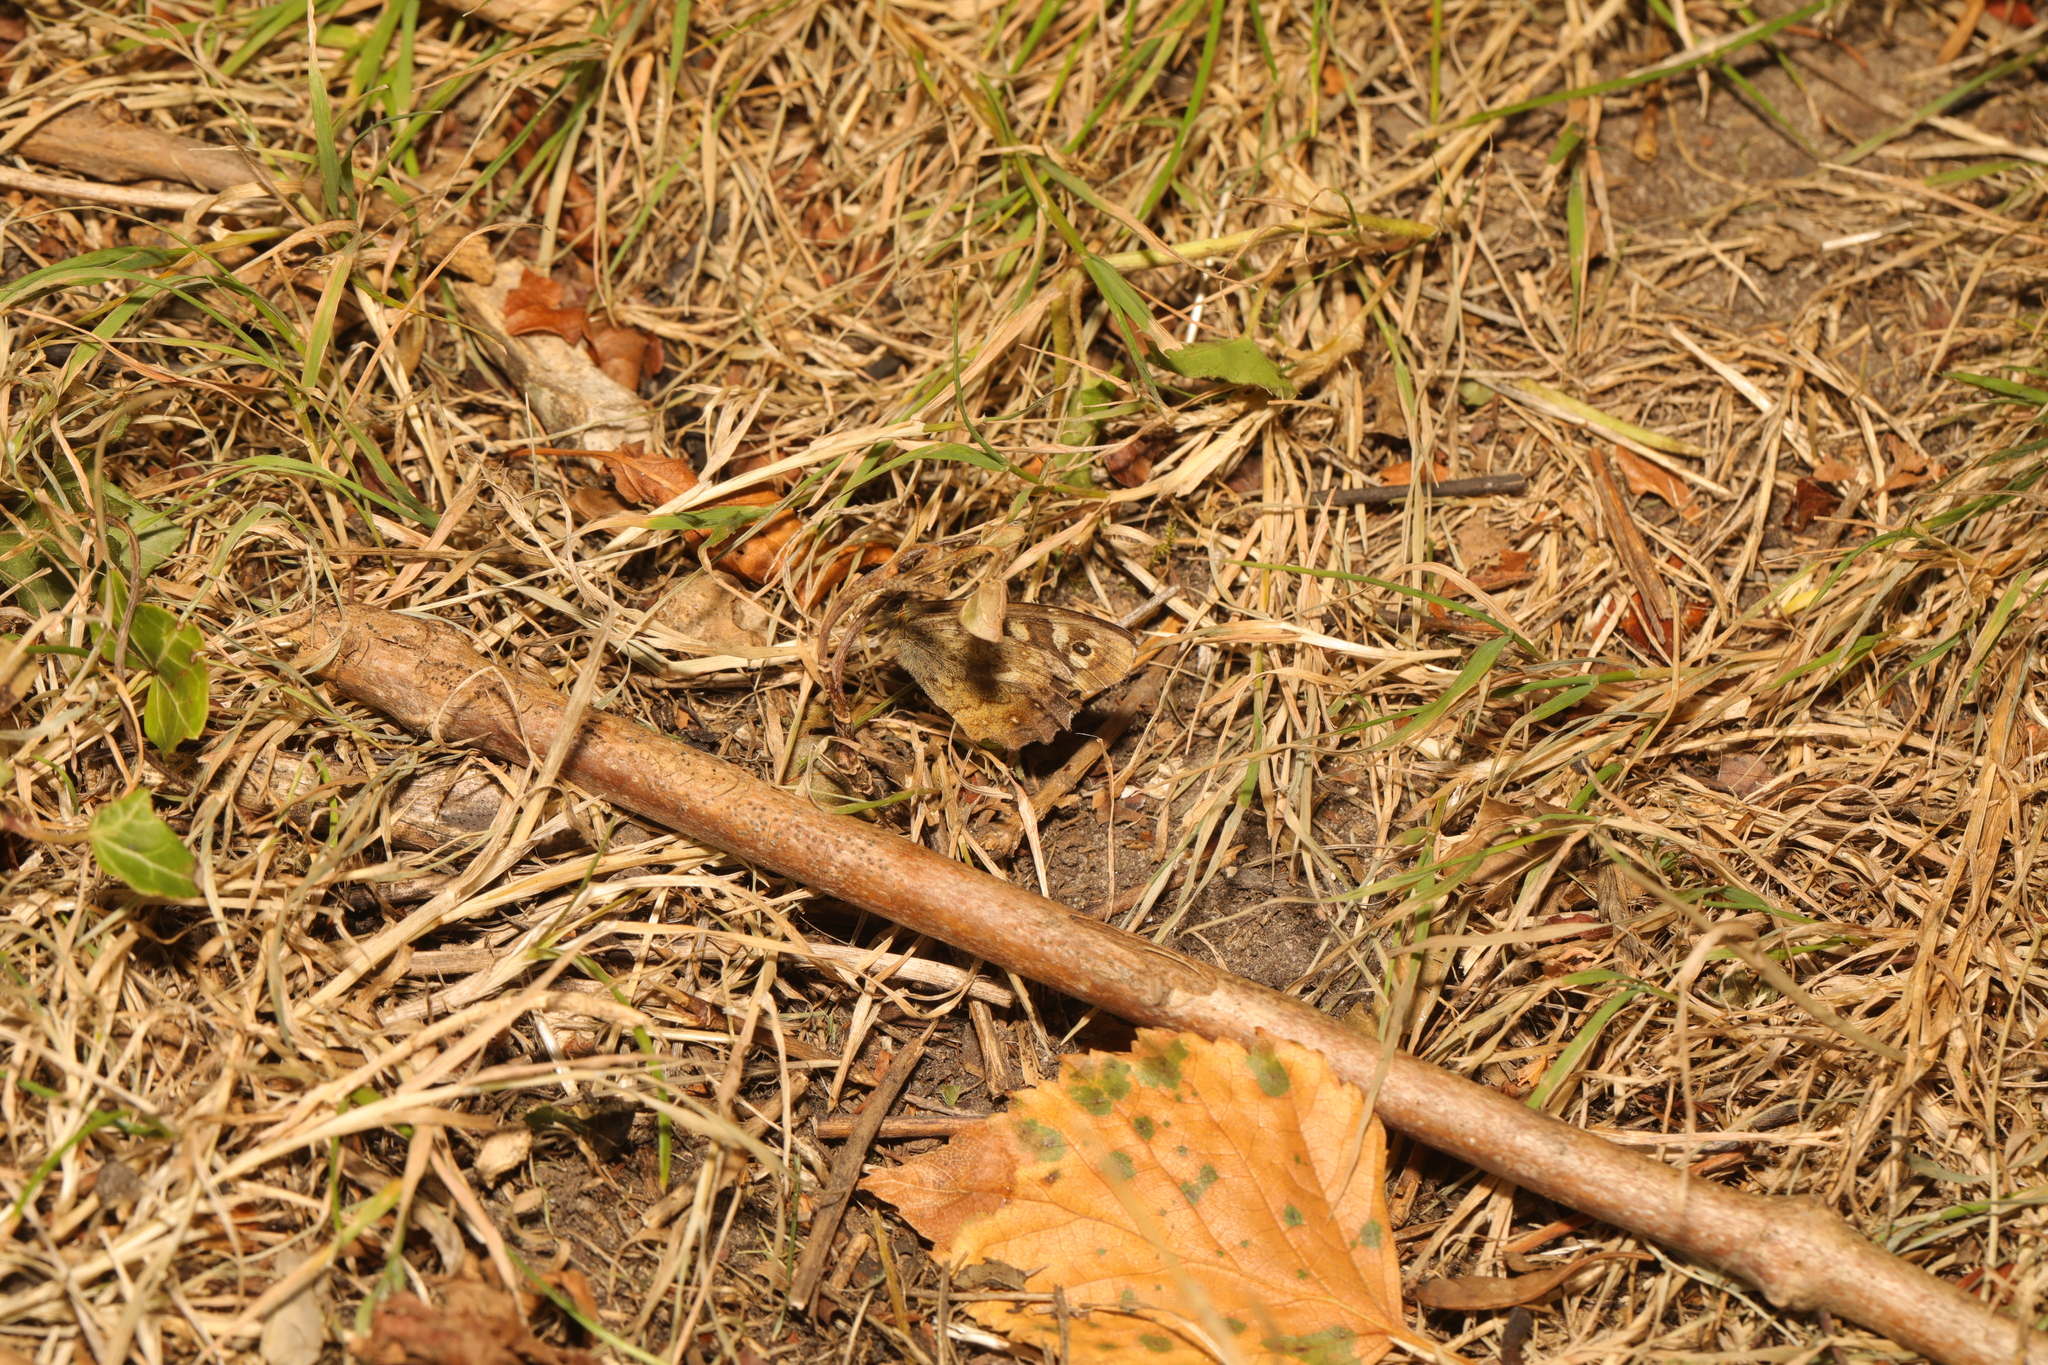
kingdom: Animalia
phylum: Arthropoda
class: Insecta
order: Lepidoptera
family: Nymphalidae
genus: Pararge
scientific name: Pararge aegeria
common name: Speckled wood
